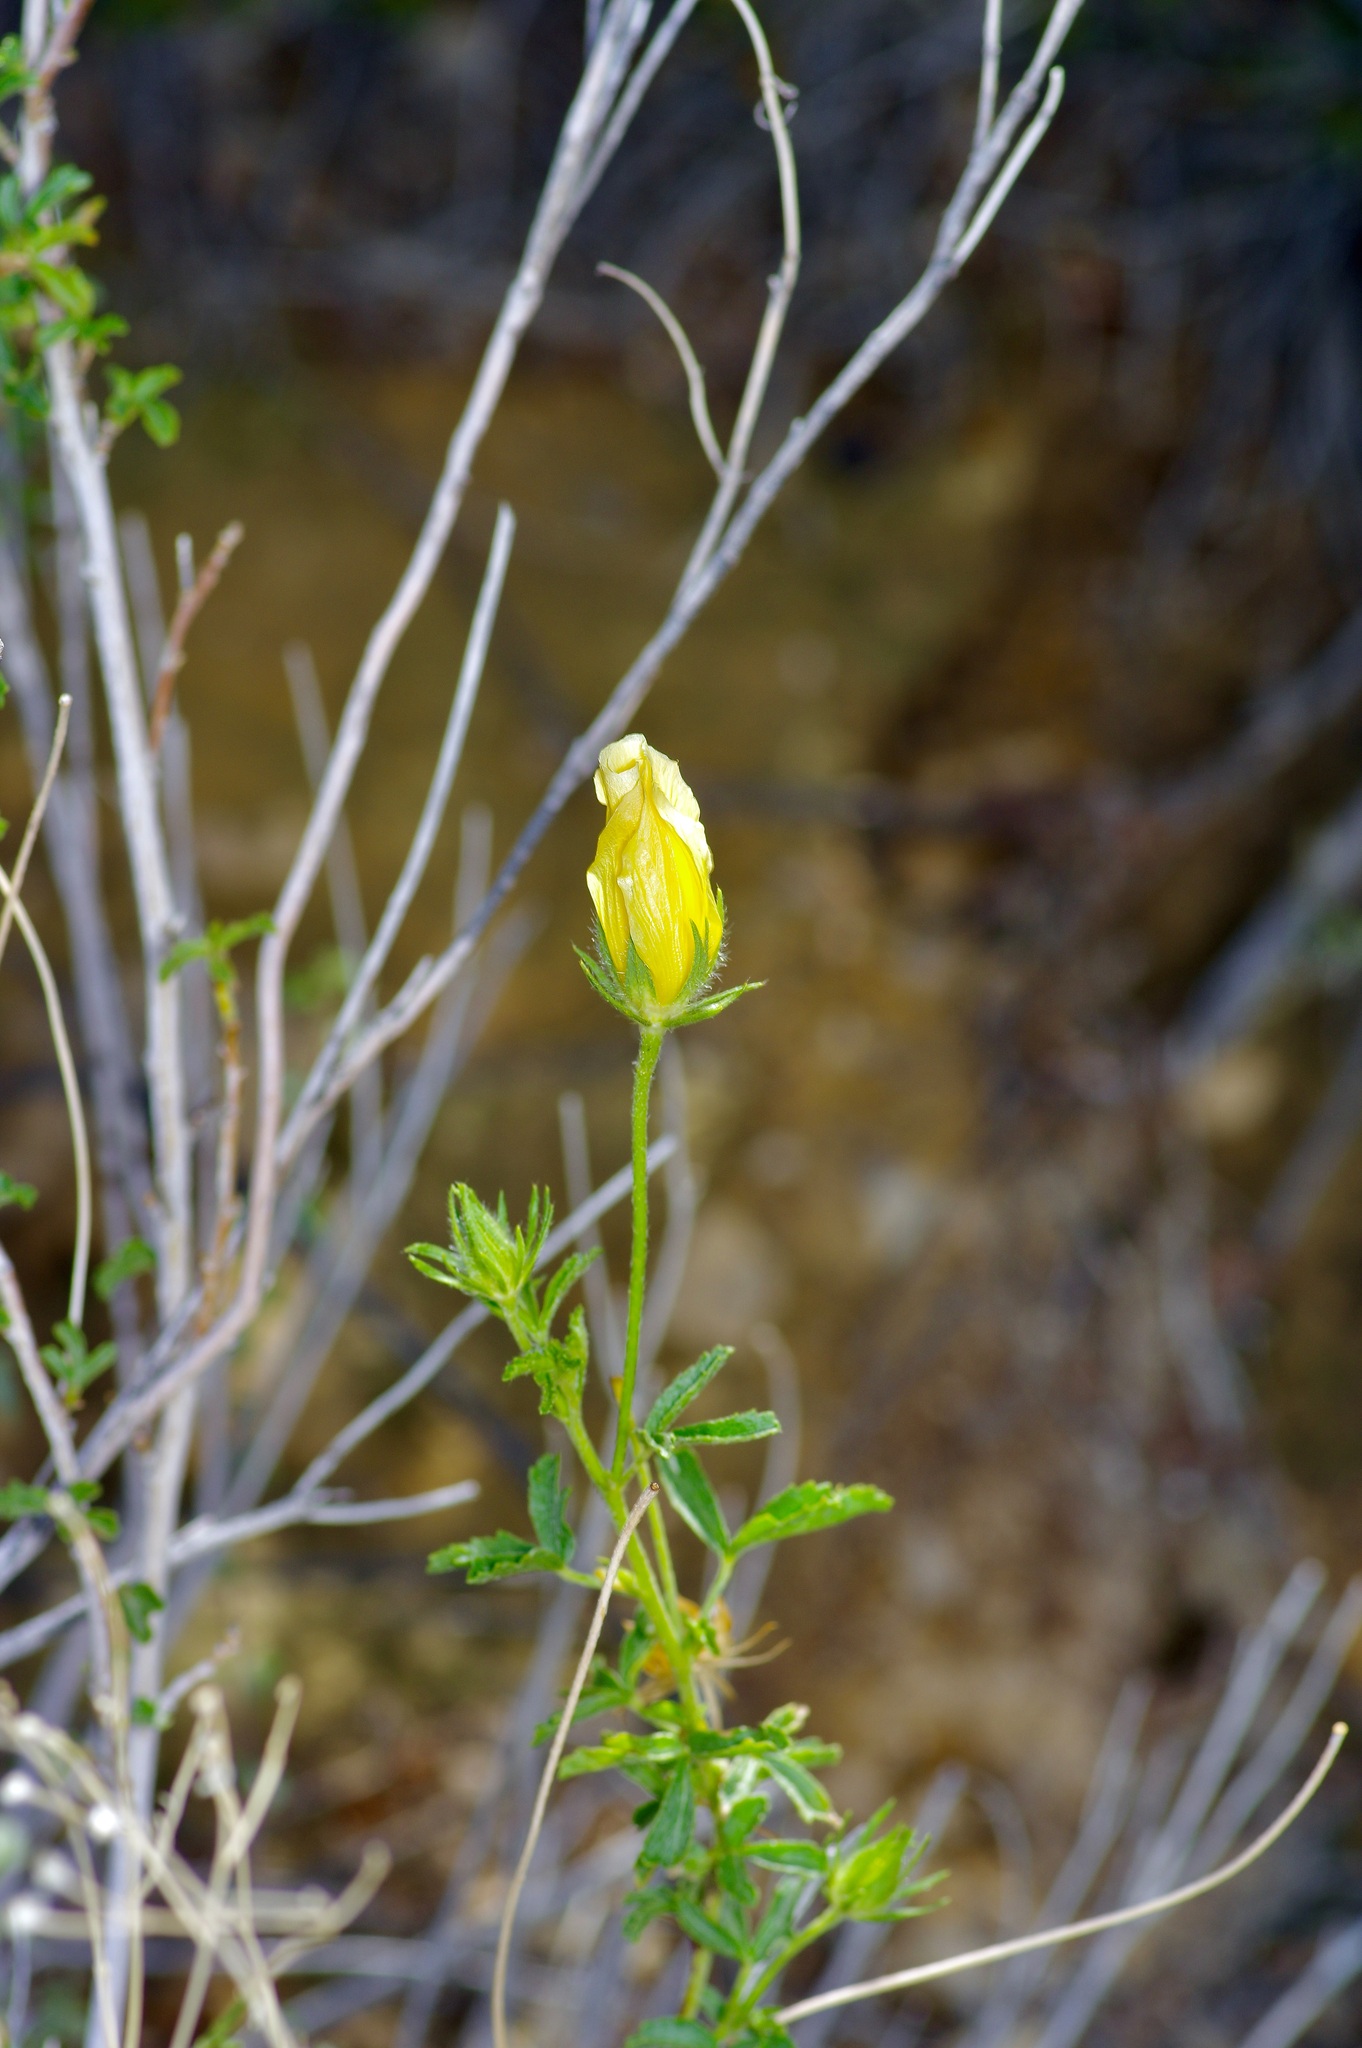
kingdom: Plantae
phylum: Tracheophyta
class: Magnoliopsida
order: Malvales
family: Malvaceae
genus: Hibiscus
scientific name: Hibiscus coulteri
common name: Desert rose-mallow
